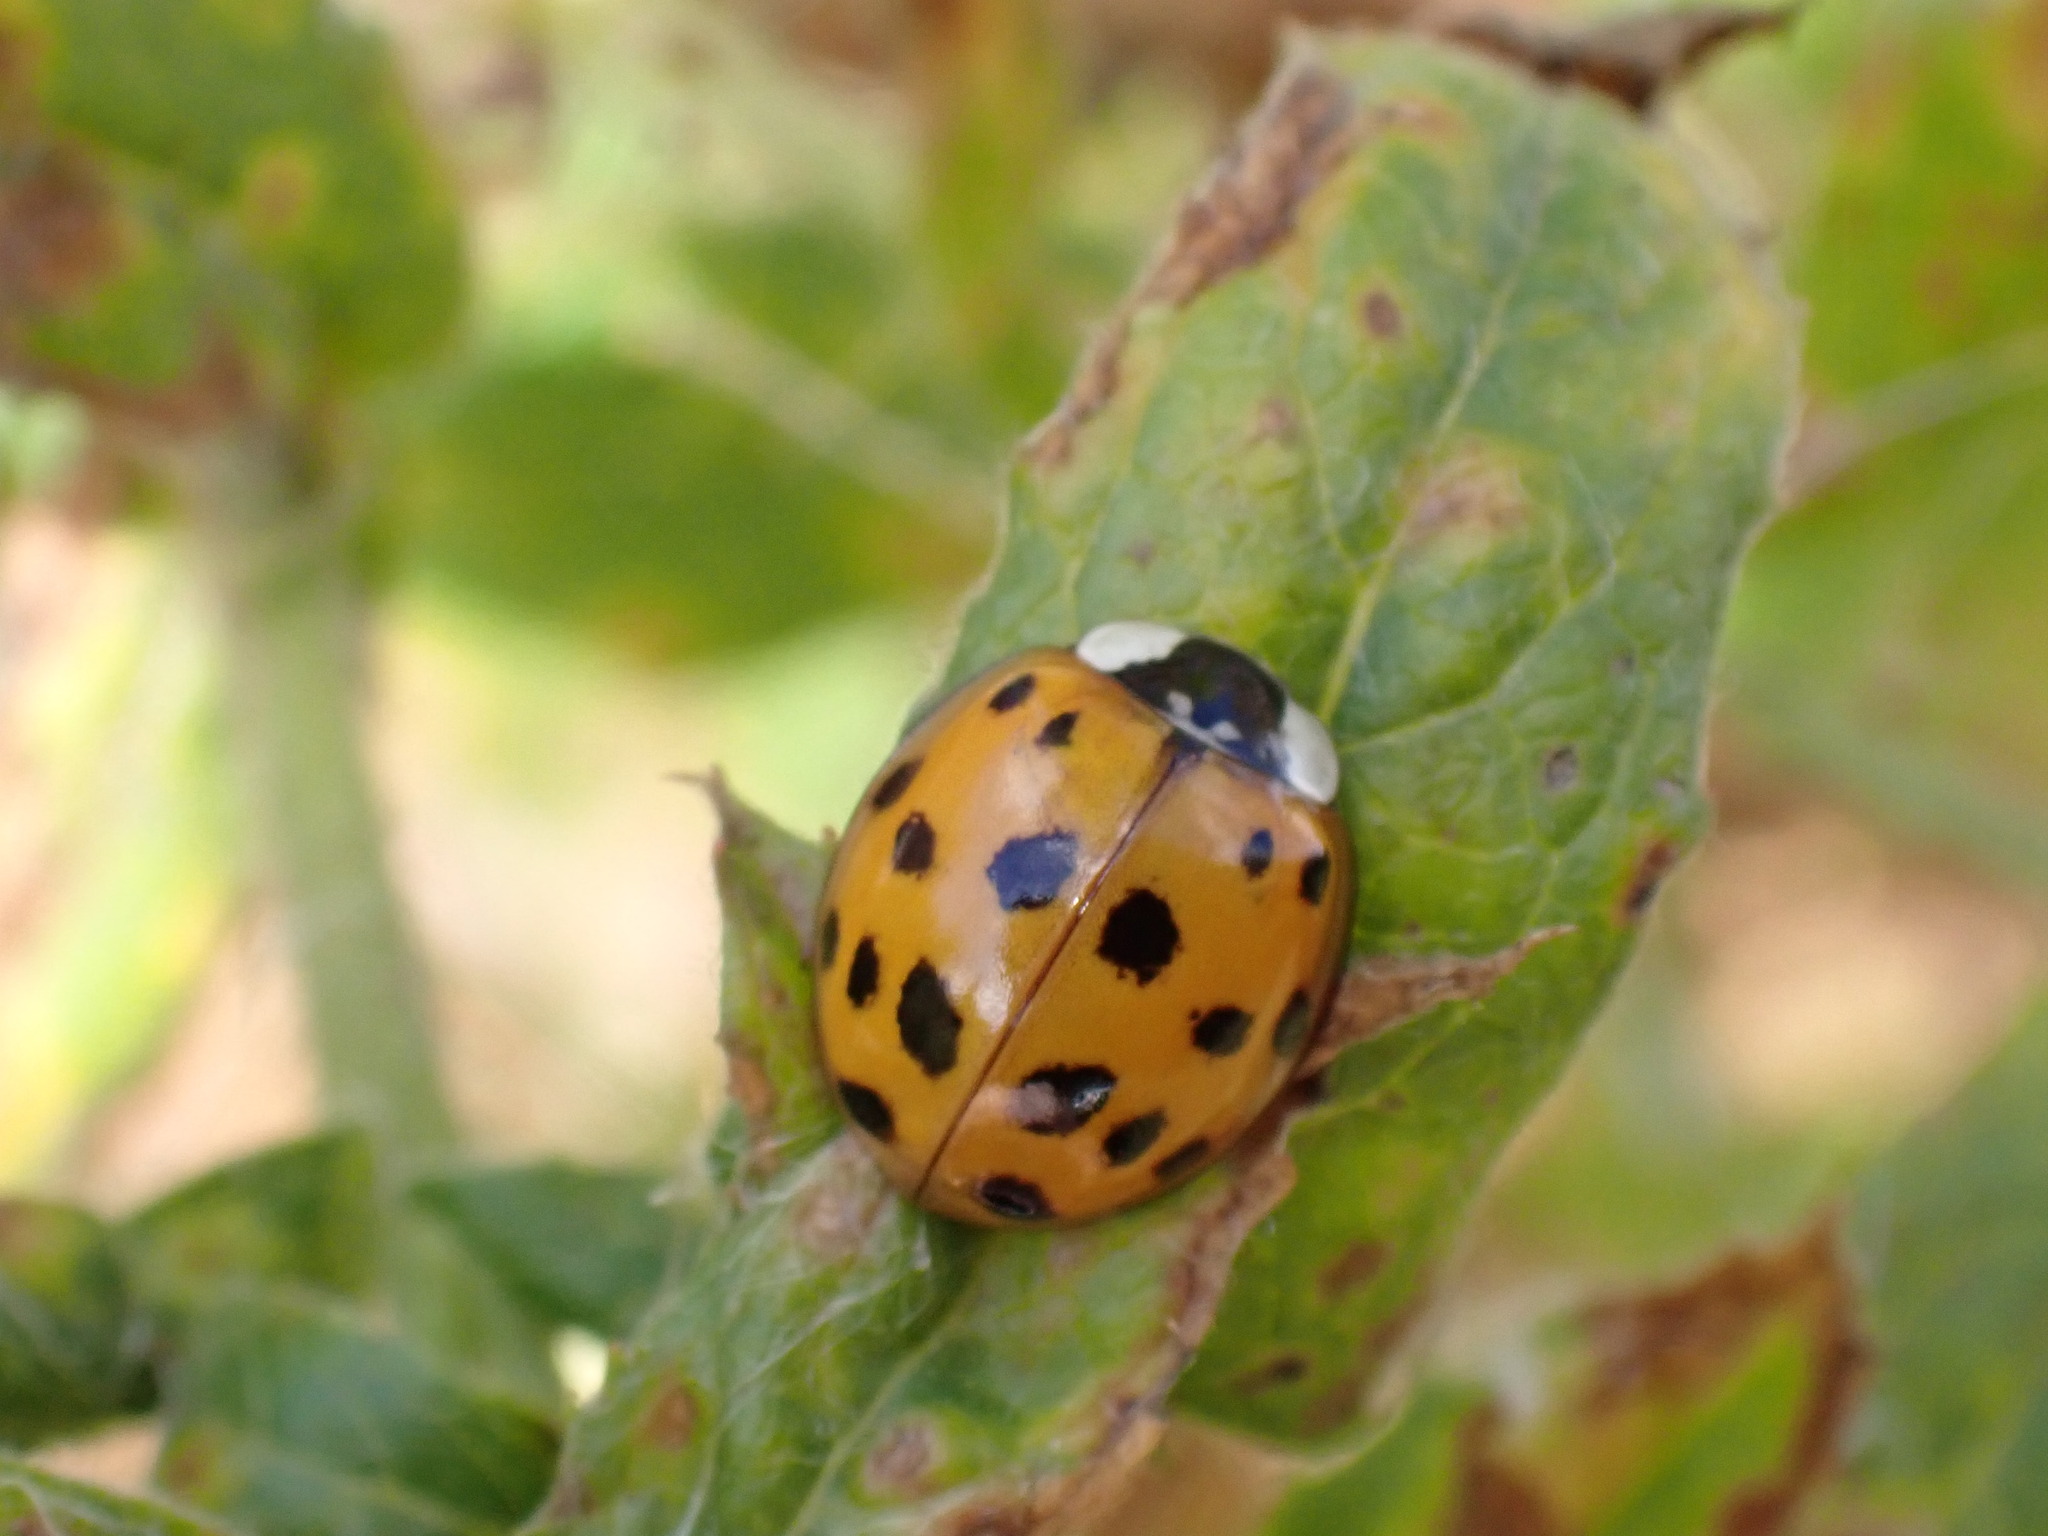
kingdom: Animalia
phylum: Arthropoda
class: Insecta
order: Coleoptera
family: Coccinellidae
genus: Harmonia
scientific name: Harmonia axyridis
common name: Harlequin ladybird
